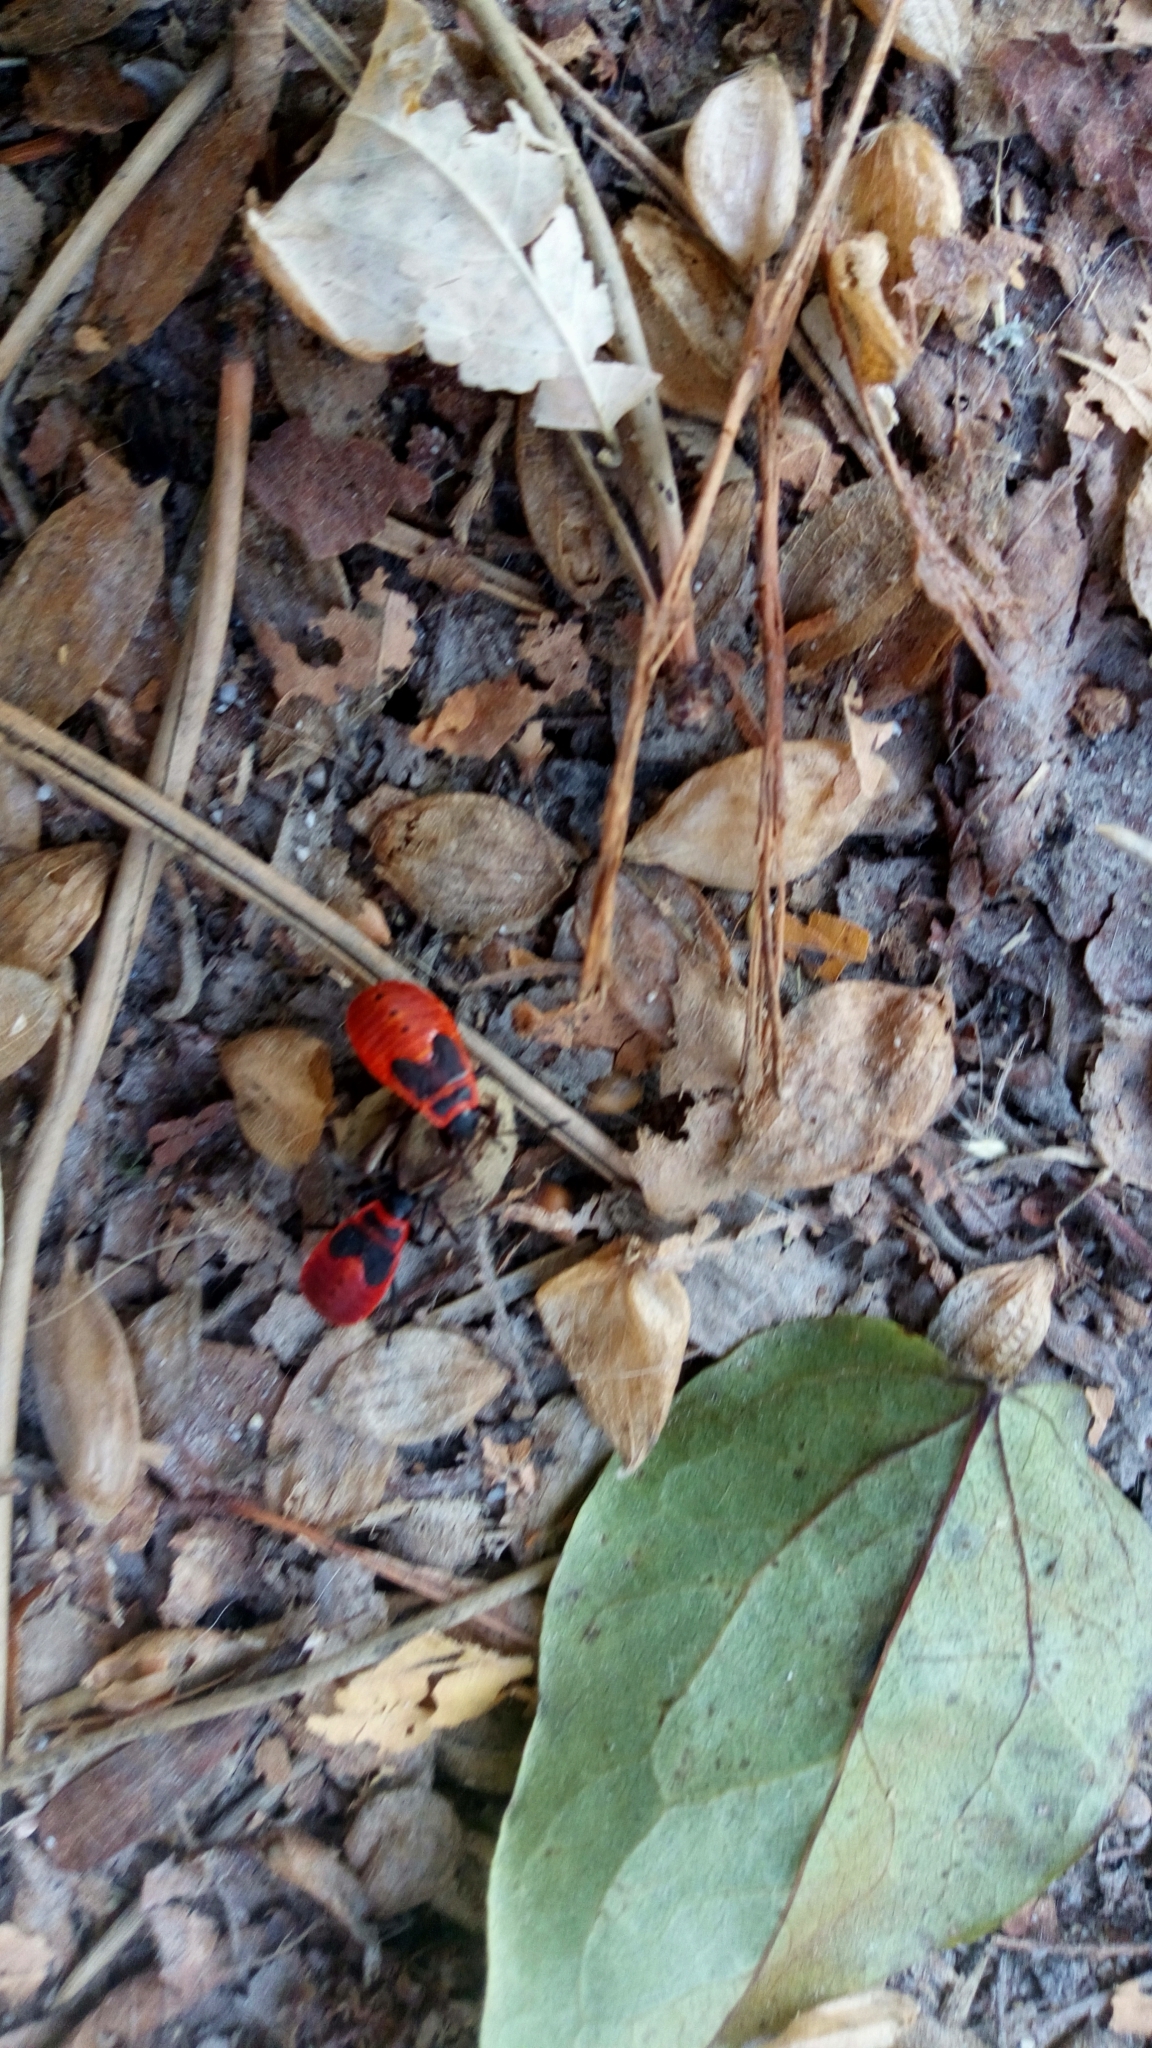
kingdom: Animalia
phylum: Arthropoda
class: Insecta
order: Hemiptera
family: Pyrrhocoridae
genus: Pyrrhocoris
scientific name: Pyrrhocoris apterus
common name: Firebug
